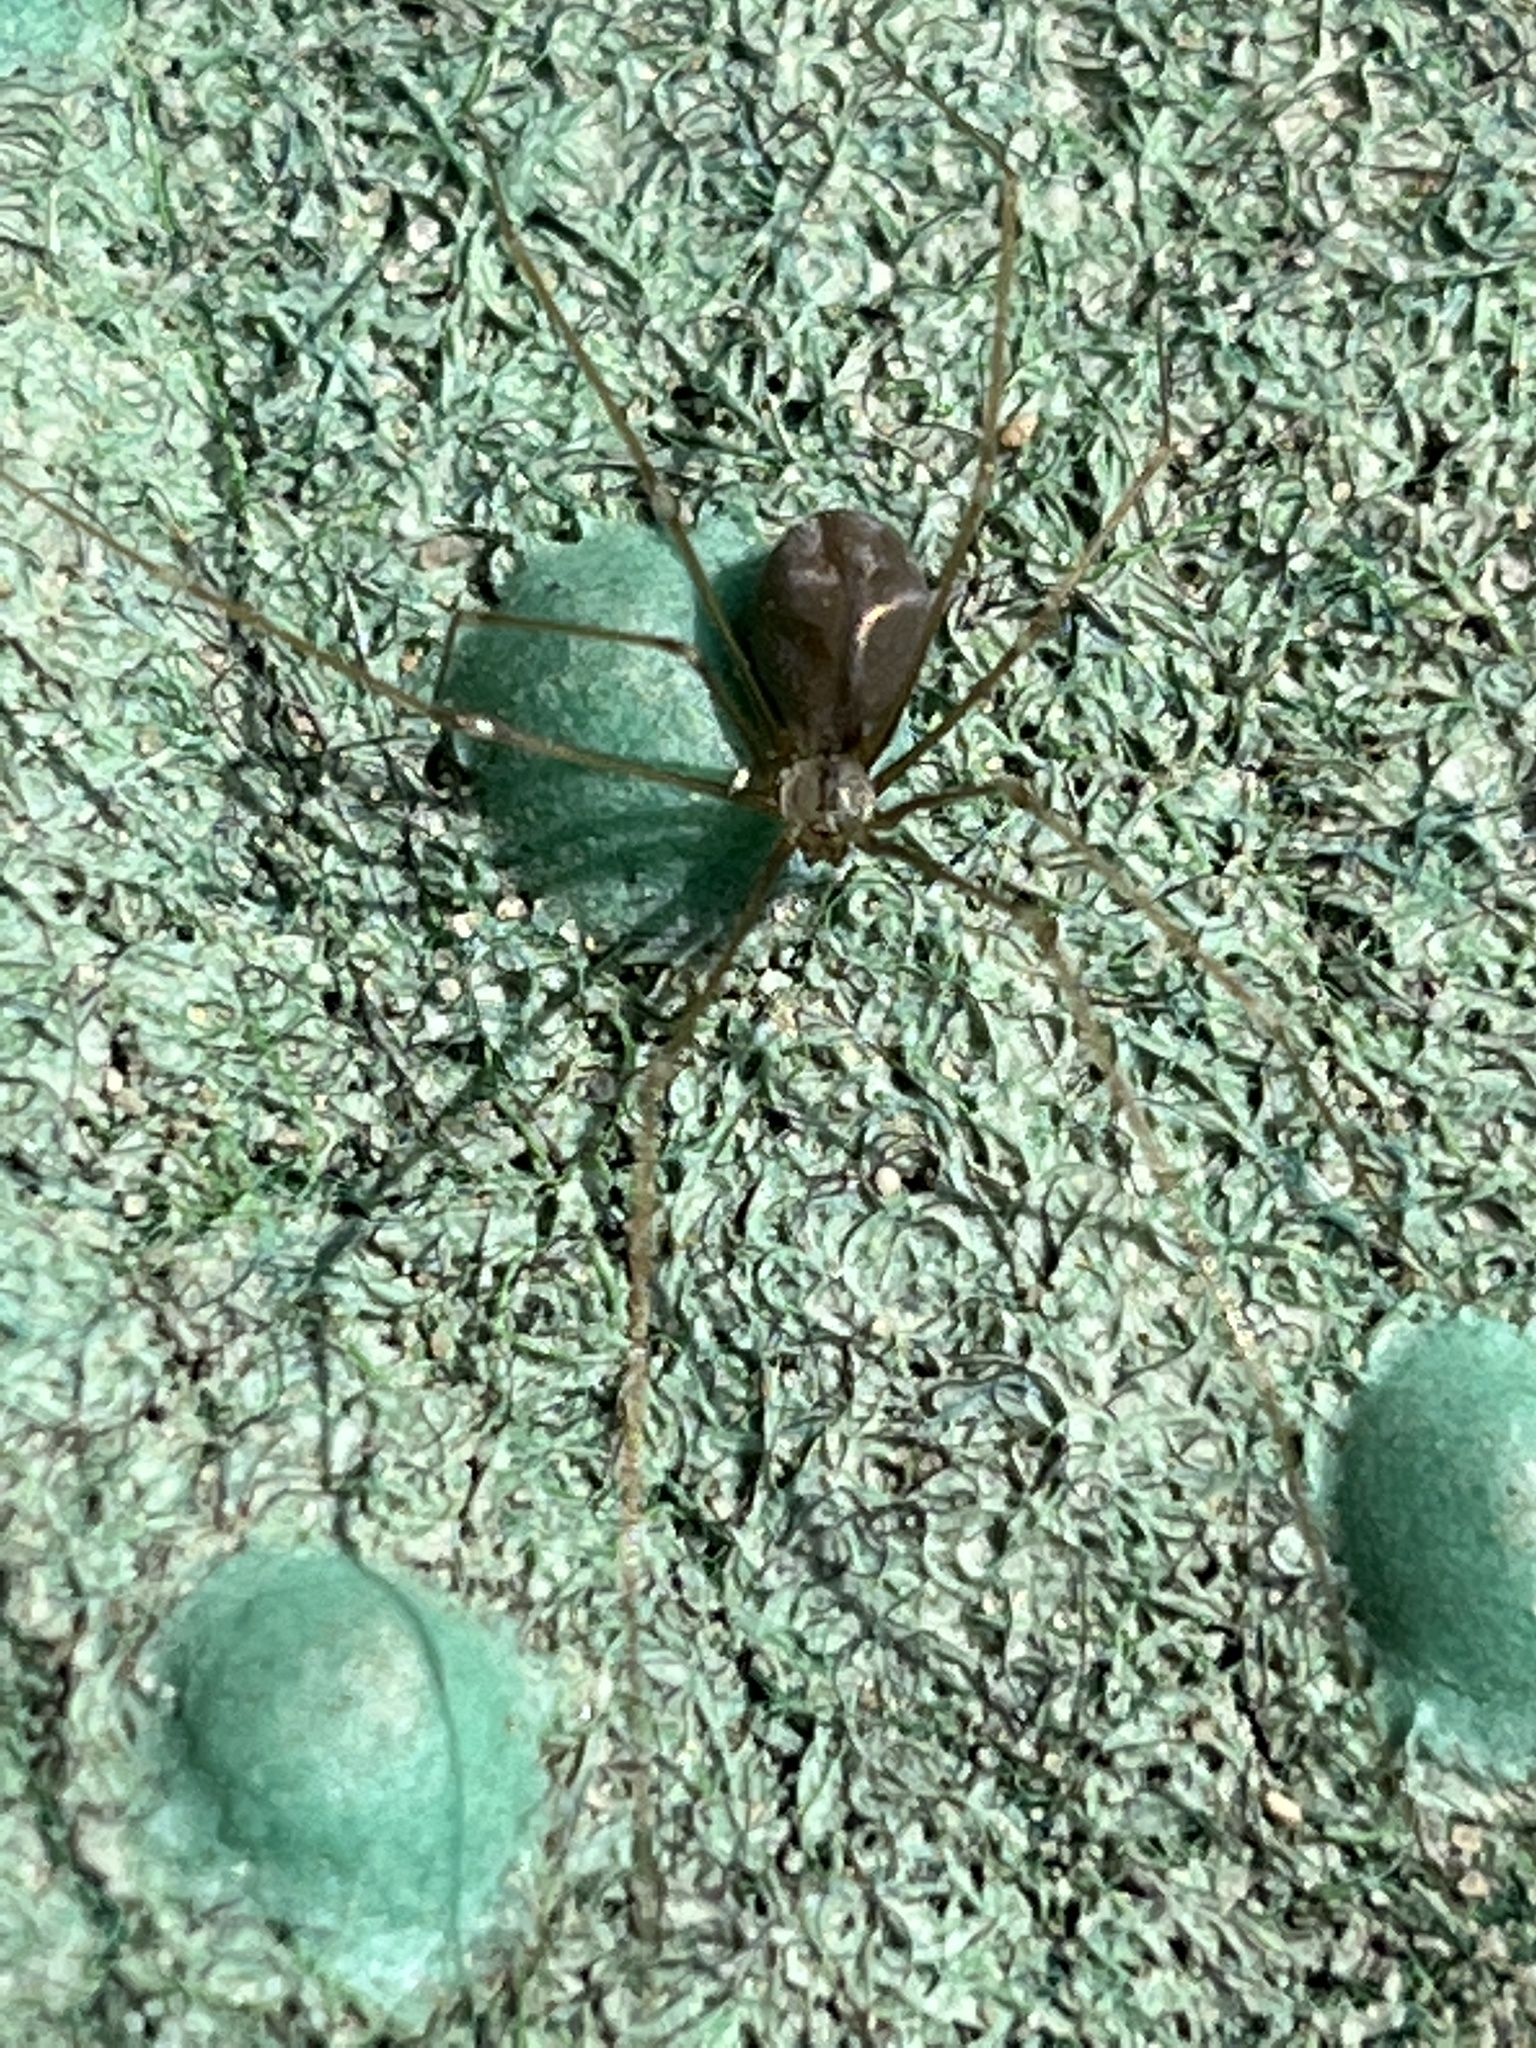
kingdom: Animalia
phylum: Arthropoda
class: Arachnida
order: Araneae
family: Pholcidae
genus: Pholcus
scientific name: Pholcus opilionoides
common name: Daddylongleg spider
